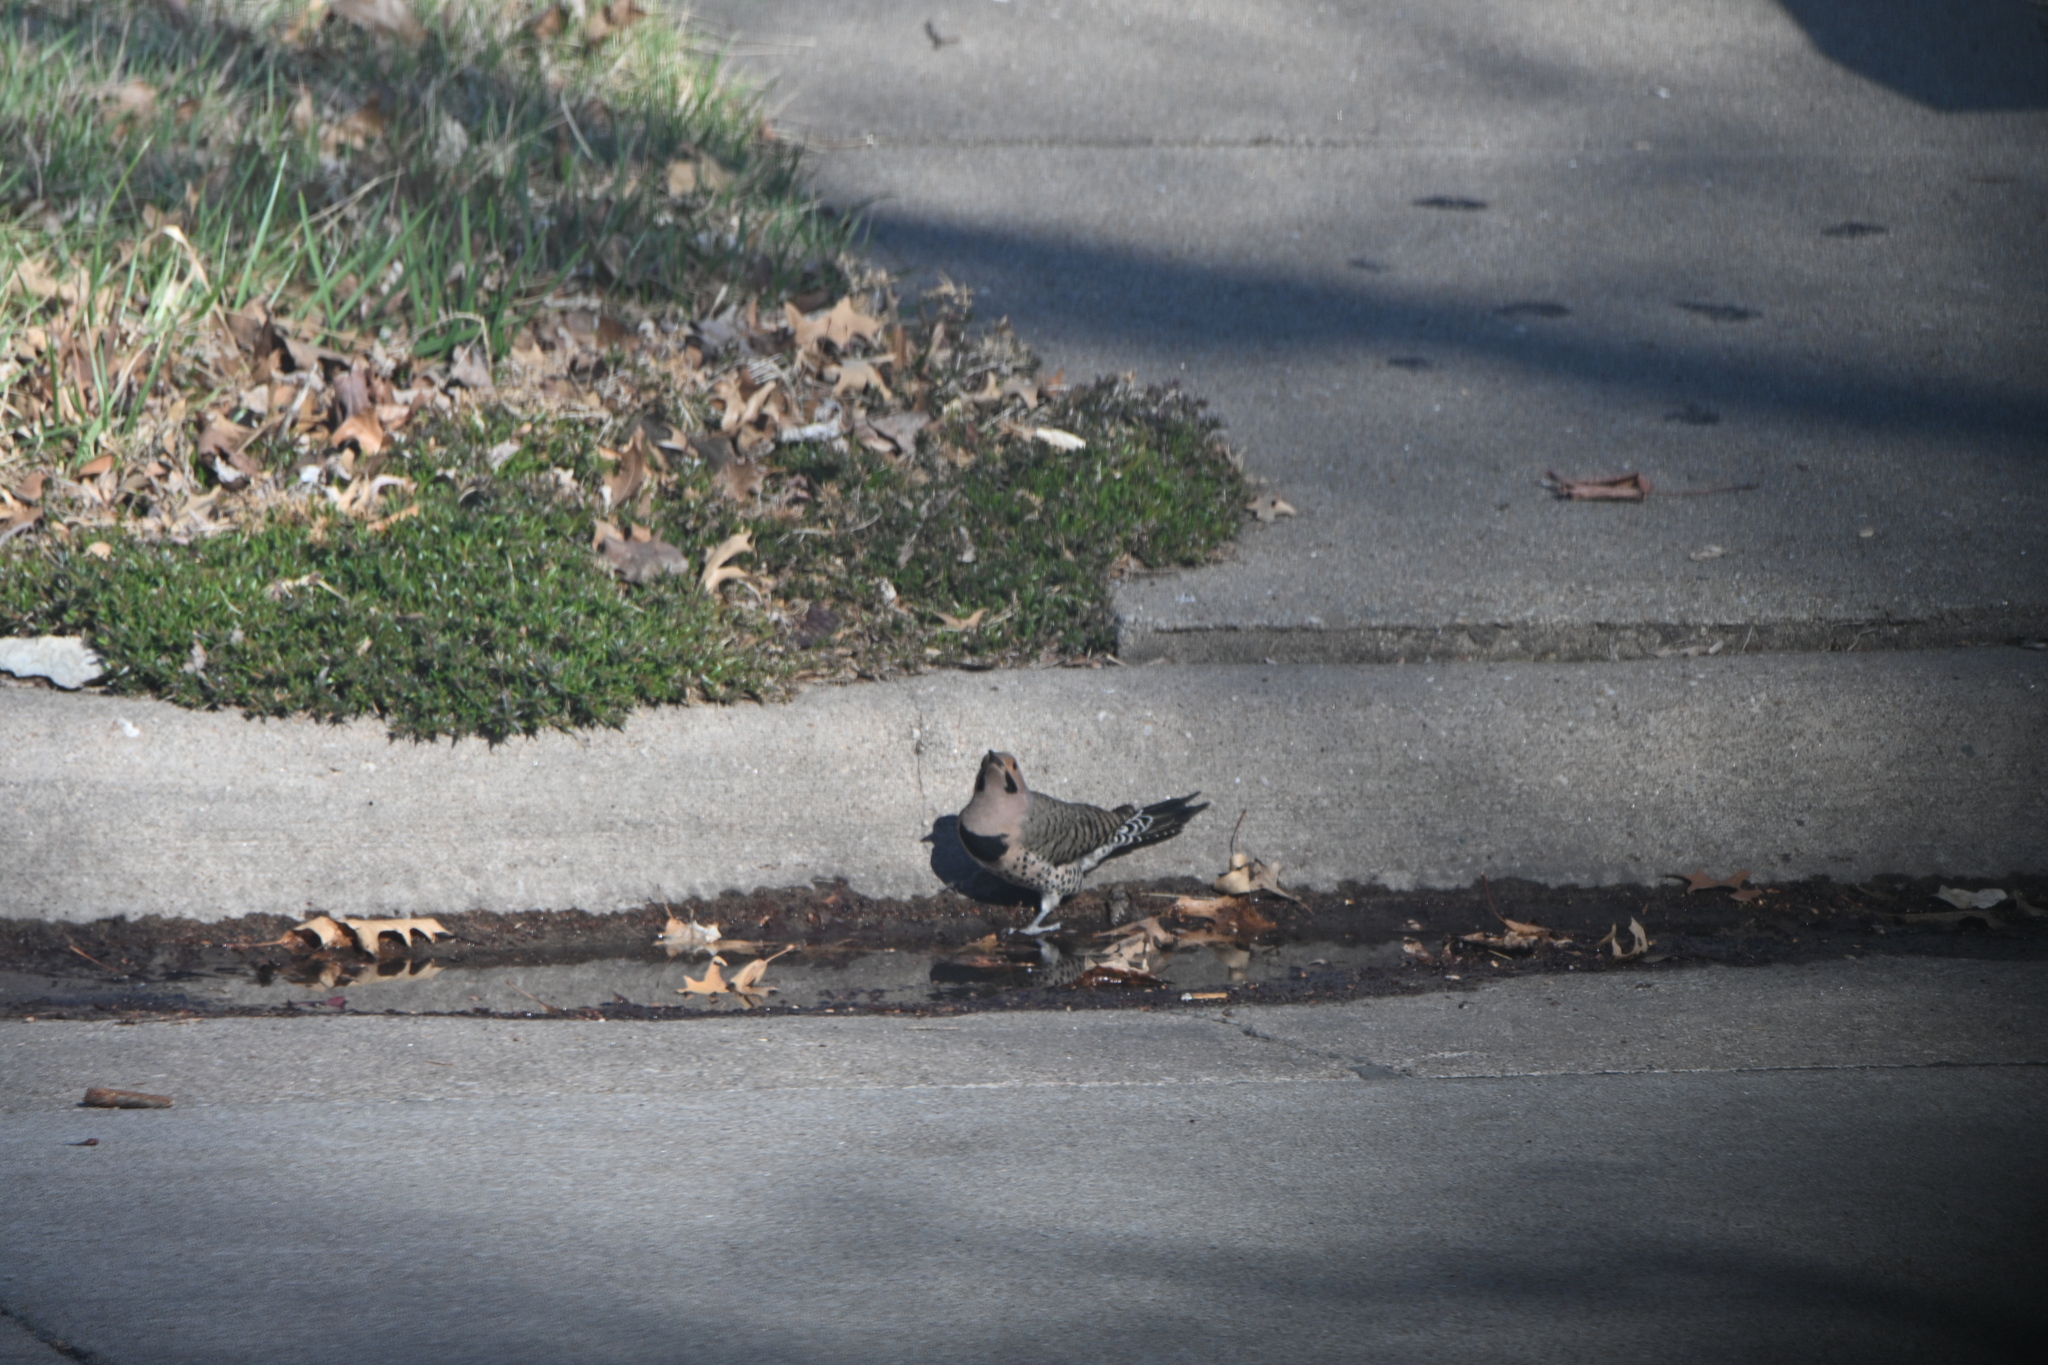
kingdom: Animalia
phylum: Chordata
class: Aves
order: Piciformes
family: Picidae
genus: Colaptes
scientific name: Colaptes auratus
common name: Northern flicker
